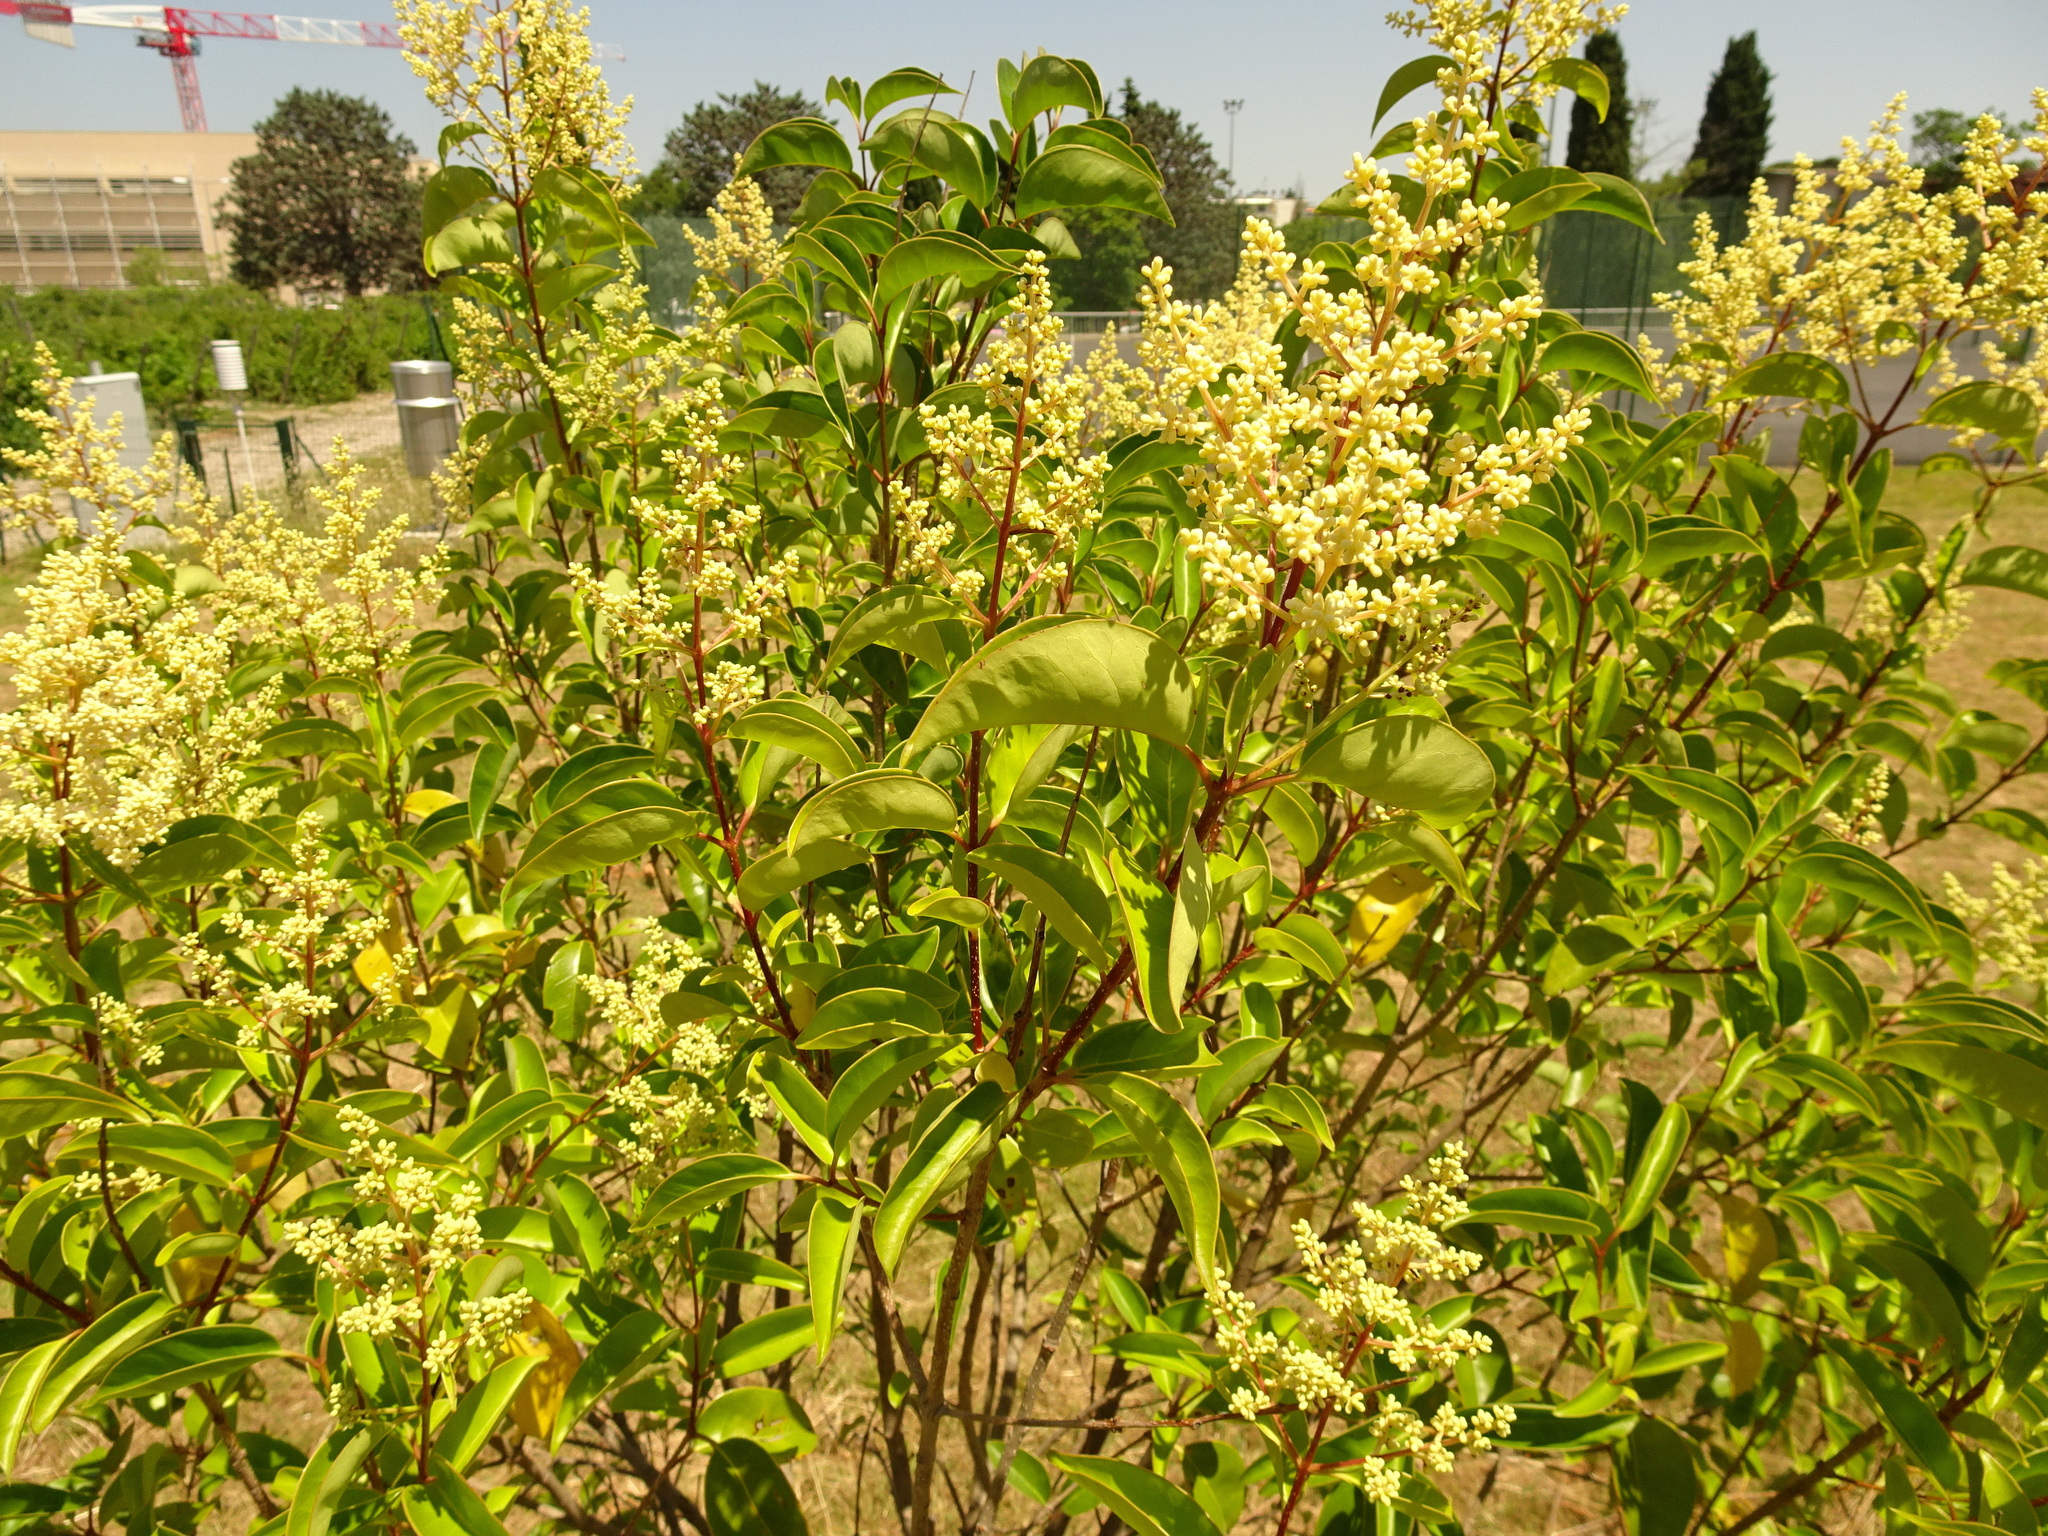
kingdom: Plantae
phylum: Tracheophyta
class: Magnoliopsida
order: Lamiales
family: Oleaceae
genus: Ligustrum
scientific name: Ligustrum lucidum
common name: Glossy privet
